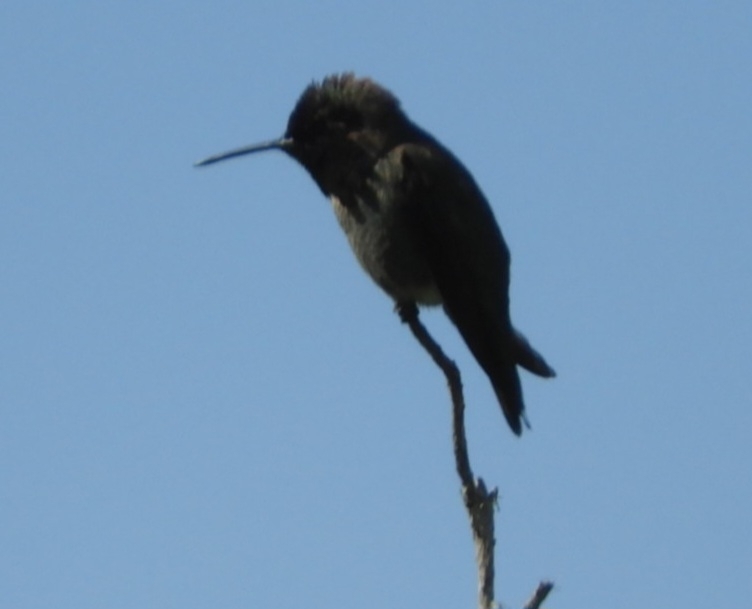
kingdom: Animalia
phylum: Chordata
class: Aves
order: Apodiformes
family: Trochilidae
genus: Calypte
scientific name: Calypte anna
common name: Anna's hummingbird
